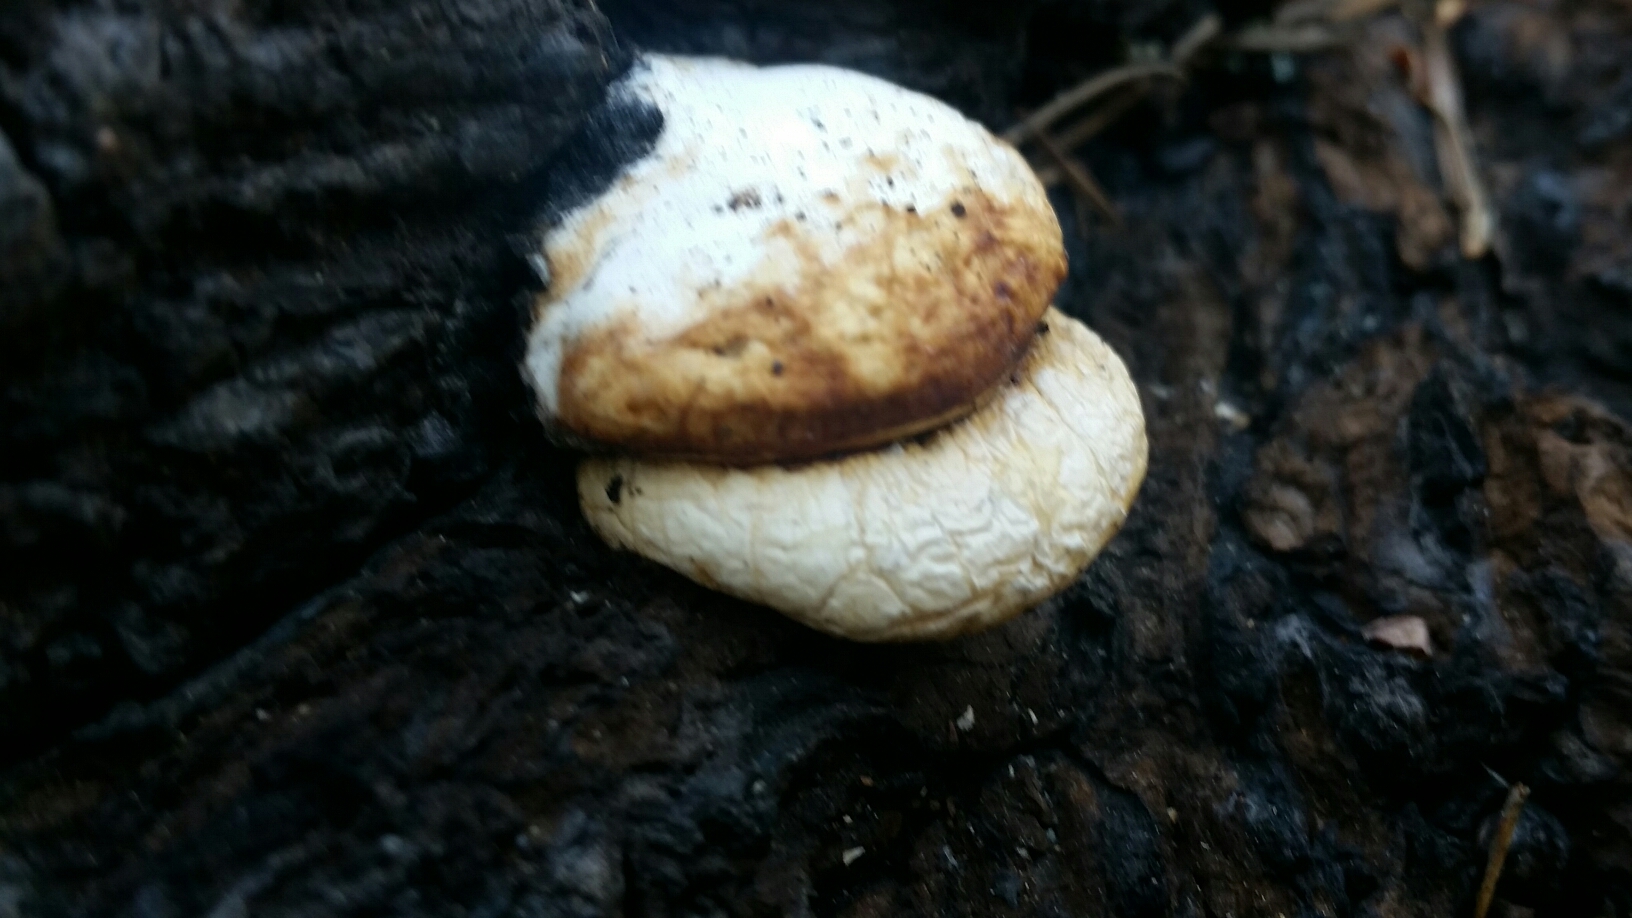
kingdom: Fungi
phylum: Basidiomycota
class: Agaricomycetes
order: Polyporales
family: Polyporaceae
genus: Cryptoporus
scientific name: Cryptoporus volvatus
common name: Veiled polypore
